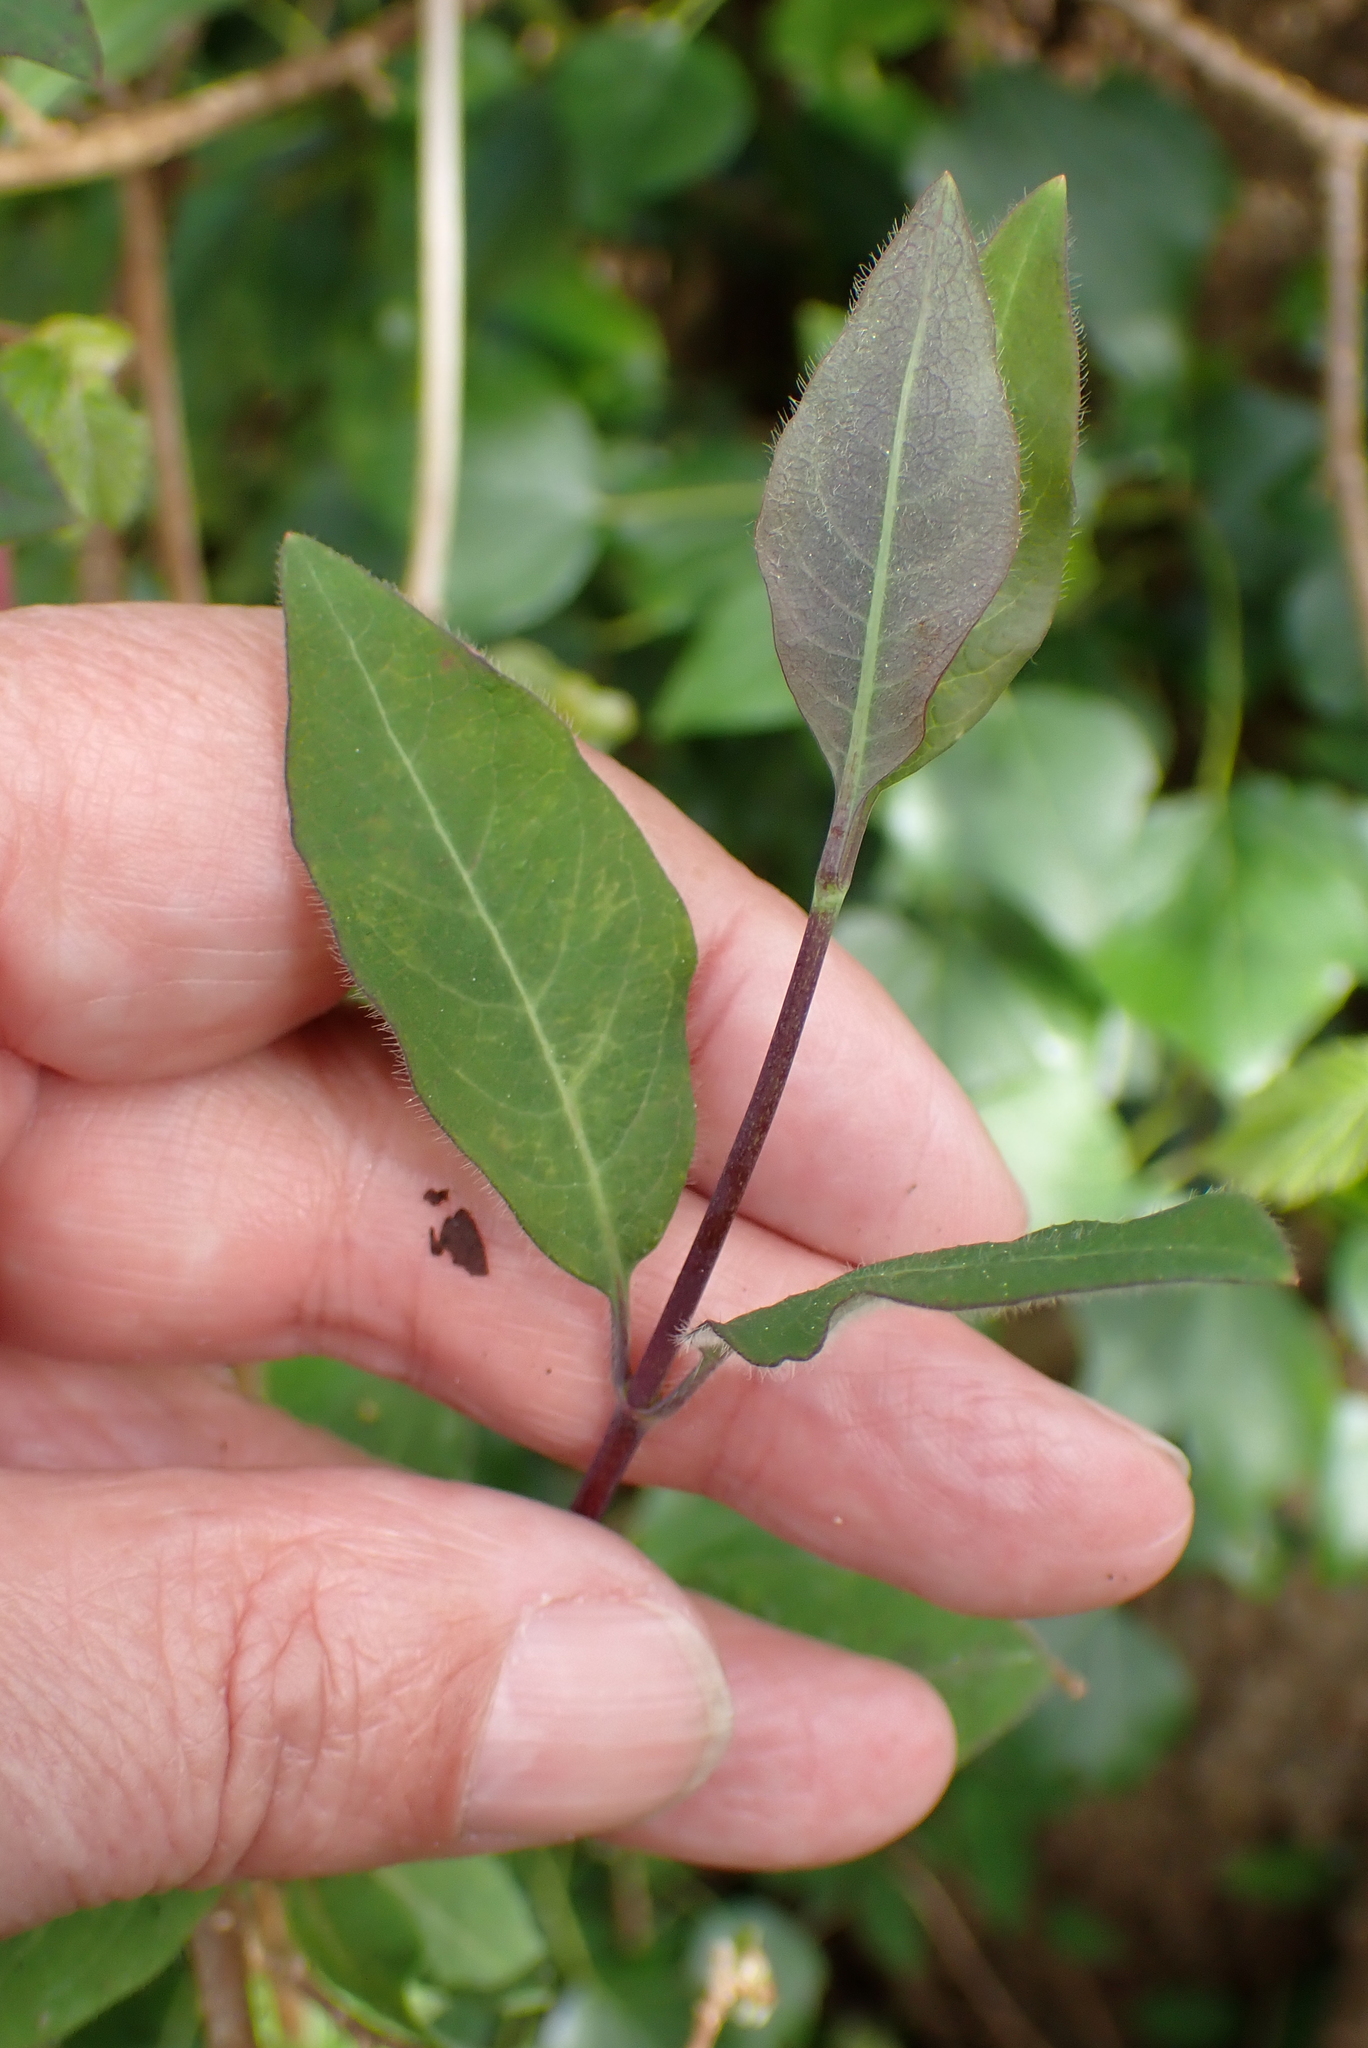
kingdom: Plantae
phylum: Tracheophyta
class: Magnoliopsida
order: Dipsacales
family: Caprifoliaceae
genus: Lonicera
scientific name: Lonicera periclymenum
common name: European honeysuckle
